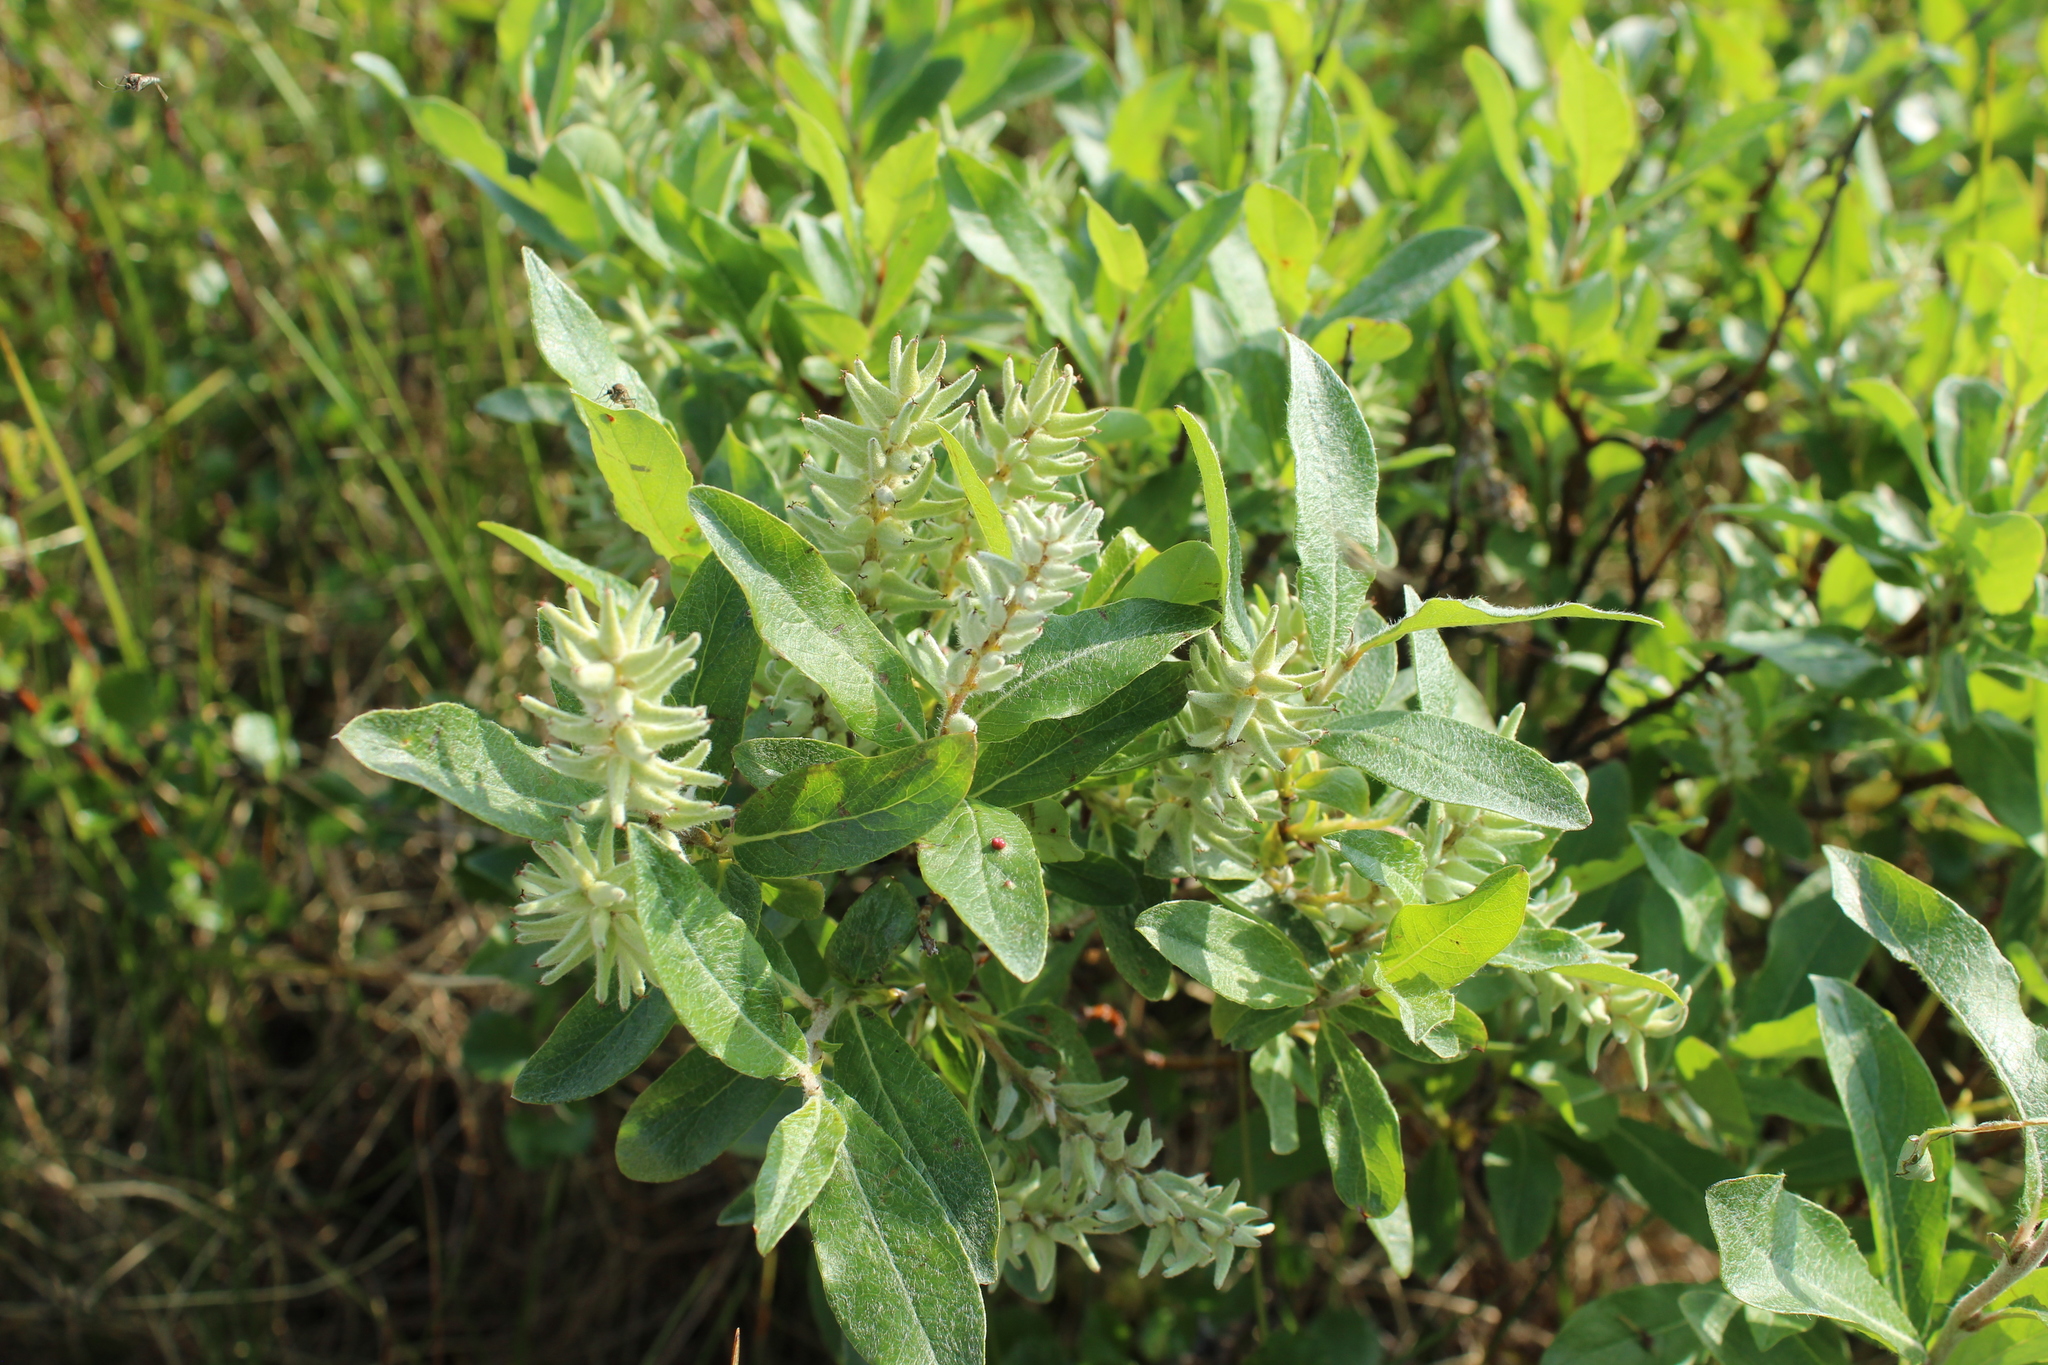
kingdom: Plantae
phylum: Tracheophyta
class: Magnoliopsida
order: Malpighiales
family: Salicaceae
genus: Salix
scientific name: Salix glauca
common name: Glaucous willow
